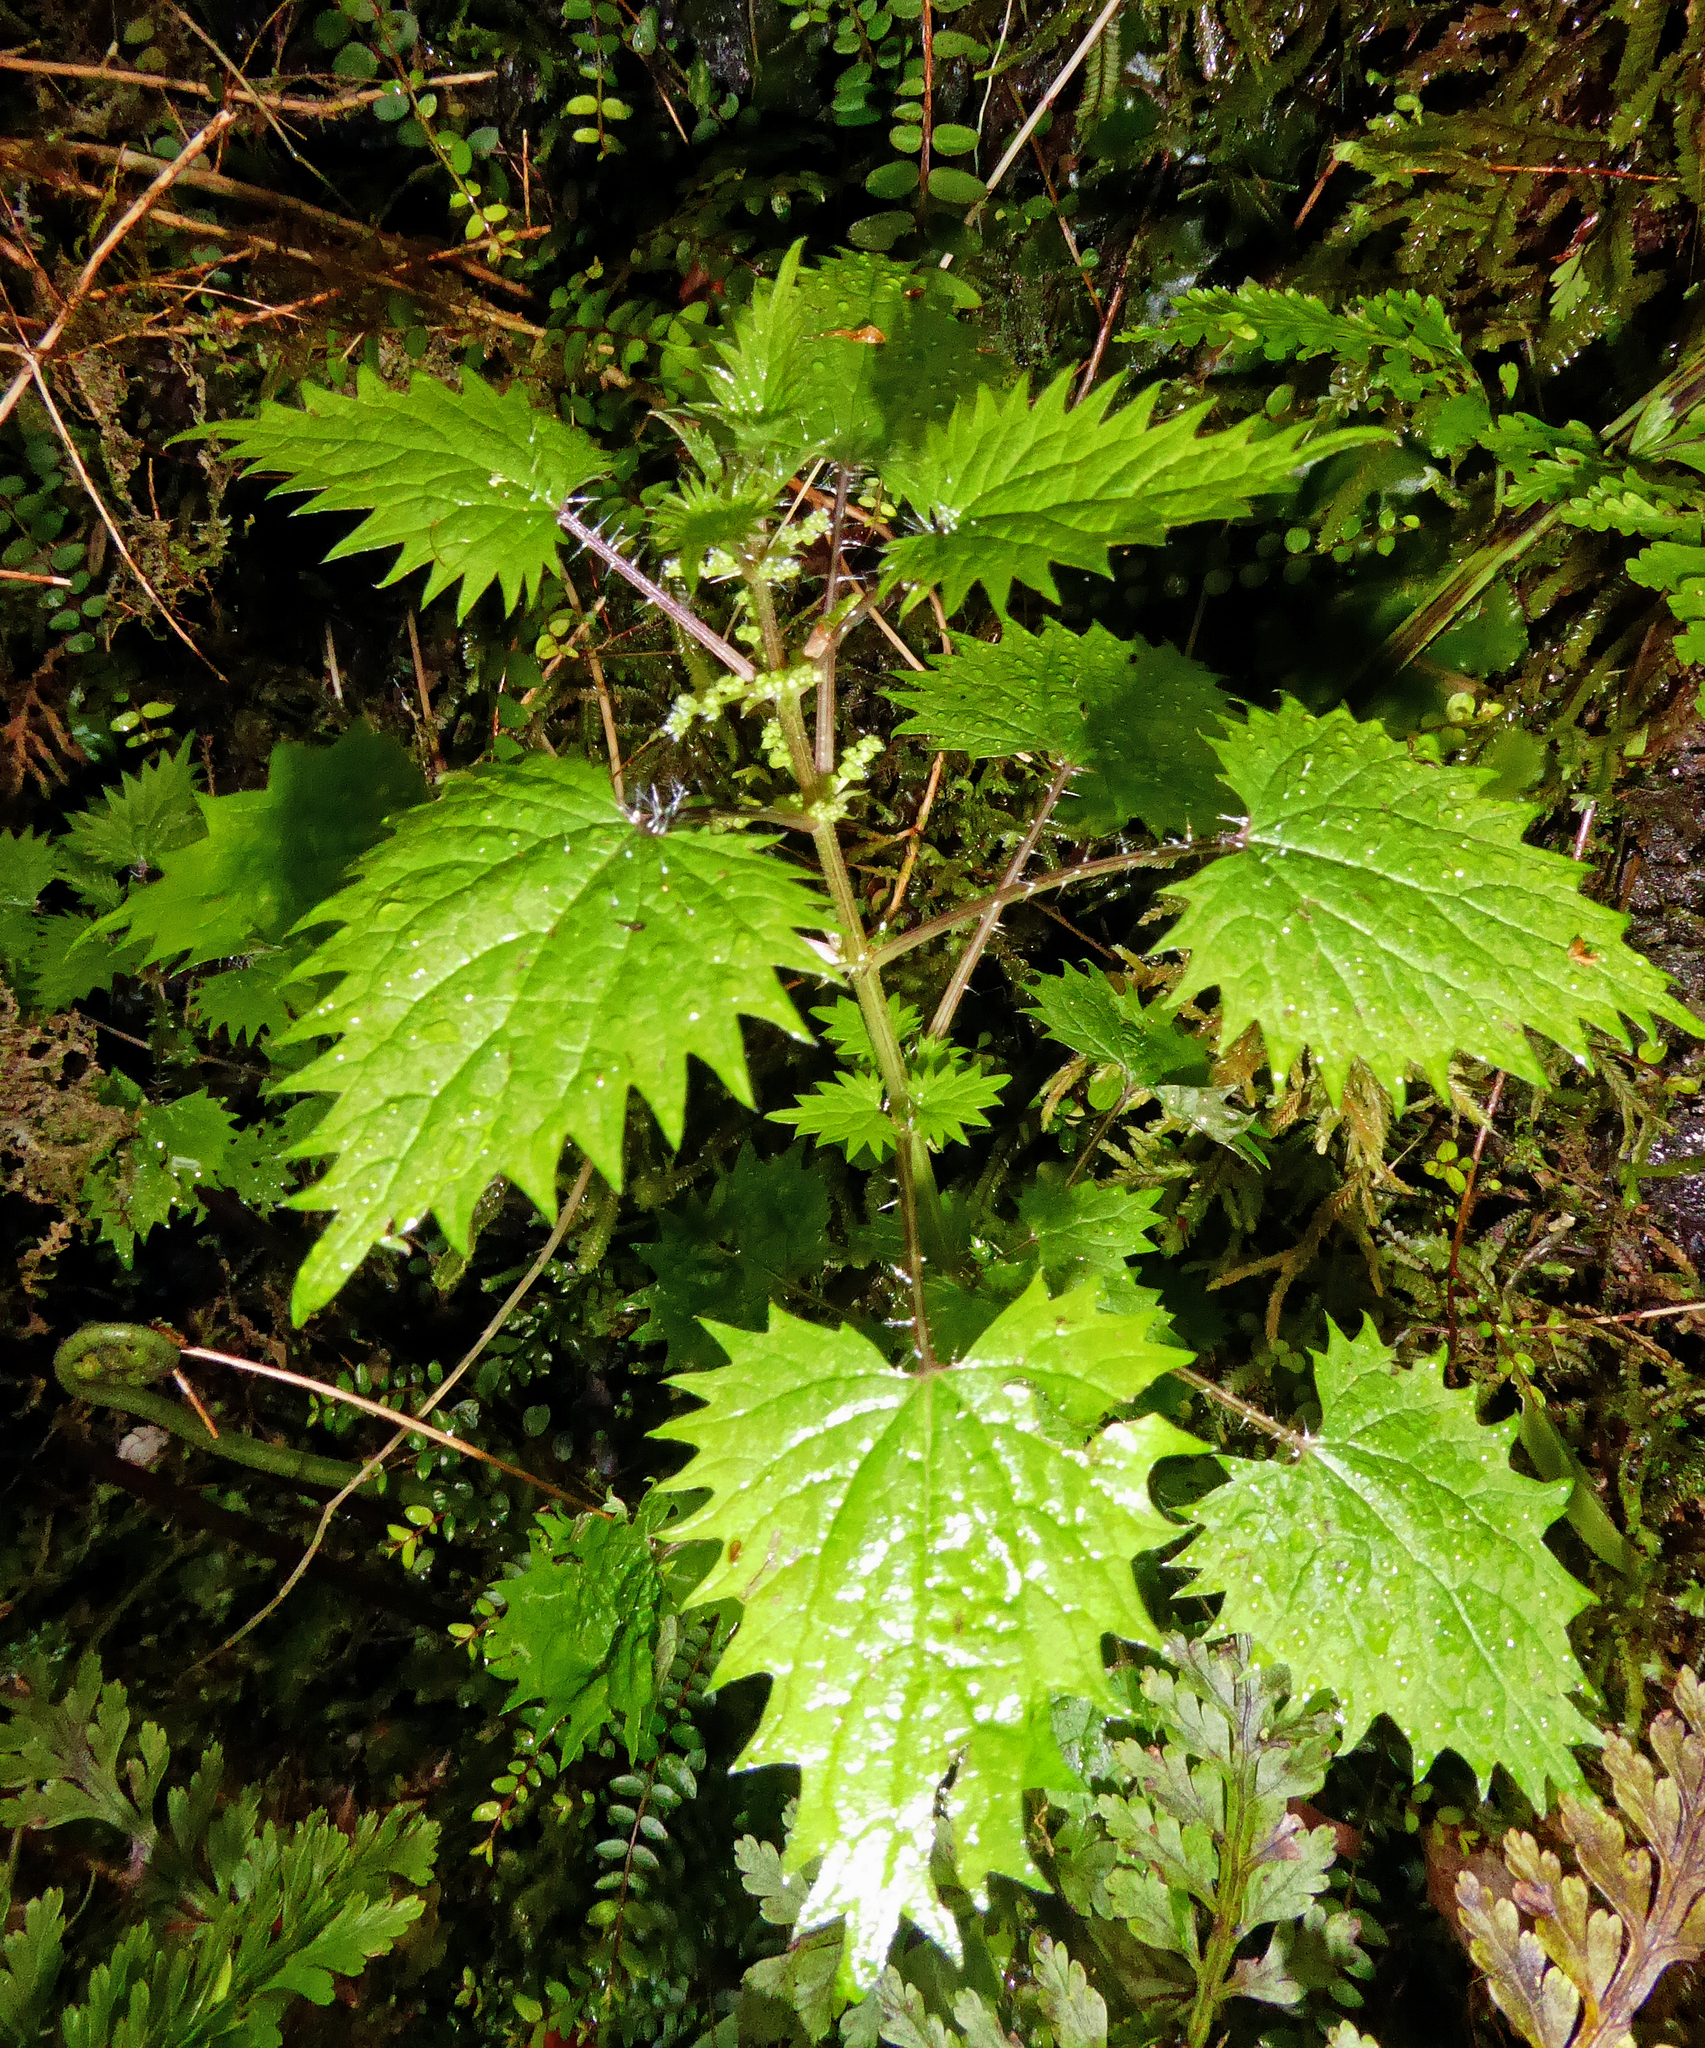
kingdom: Plantae
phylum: Tracheophyta
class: Magnoliopsida
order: Rosales
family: Urticaceae
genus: Urtica
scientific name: Urtica sykesii
